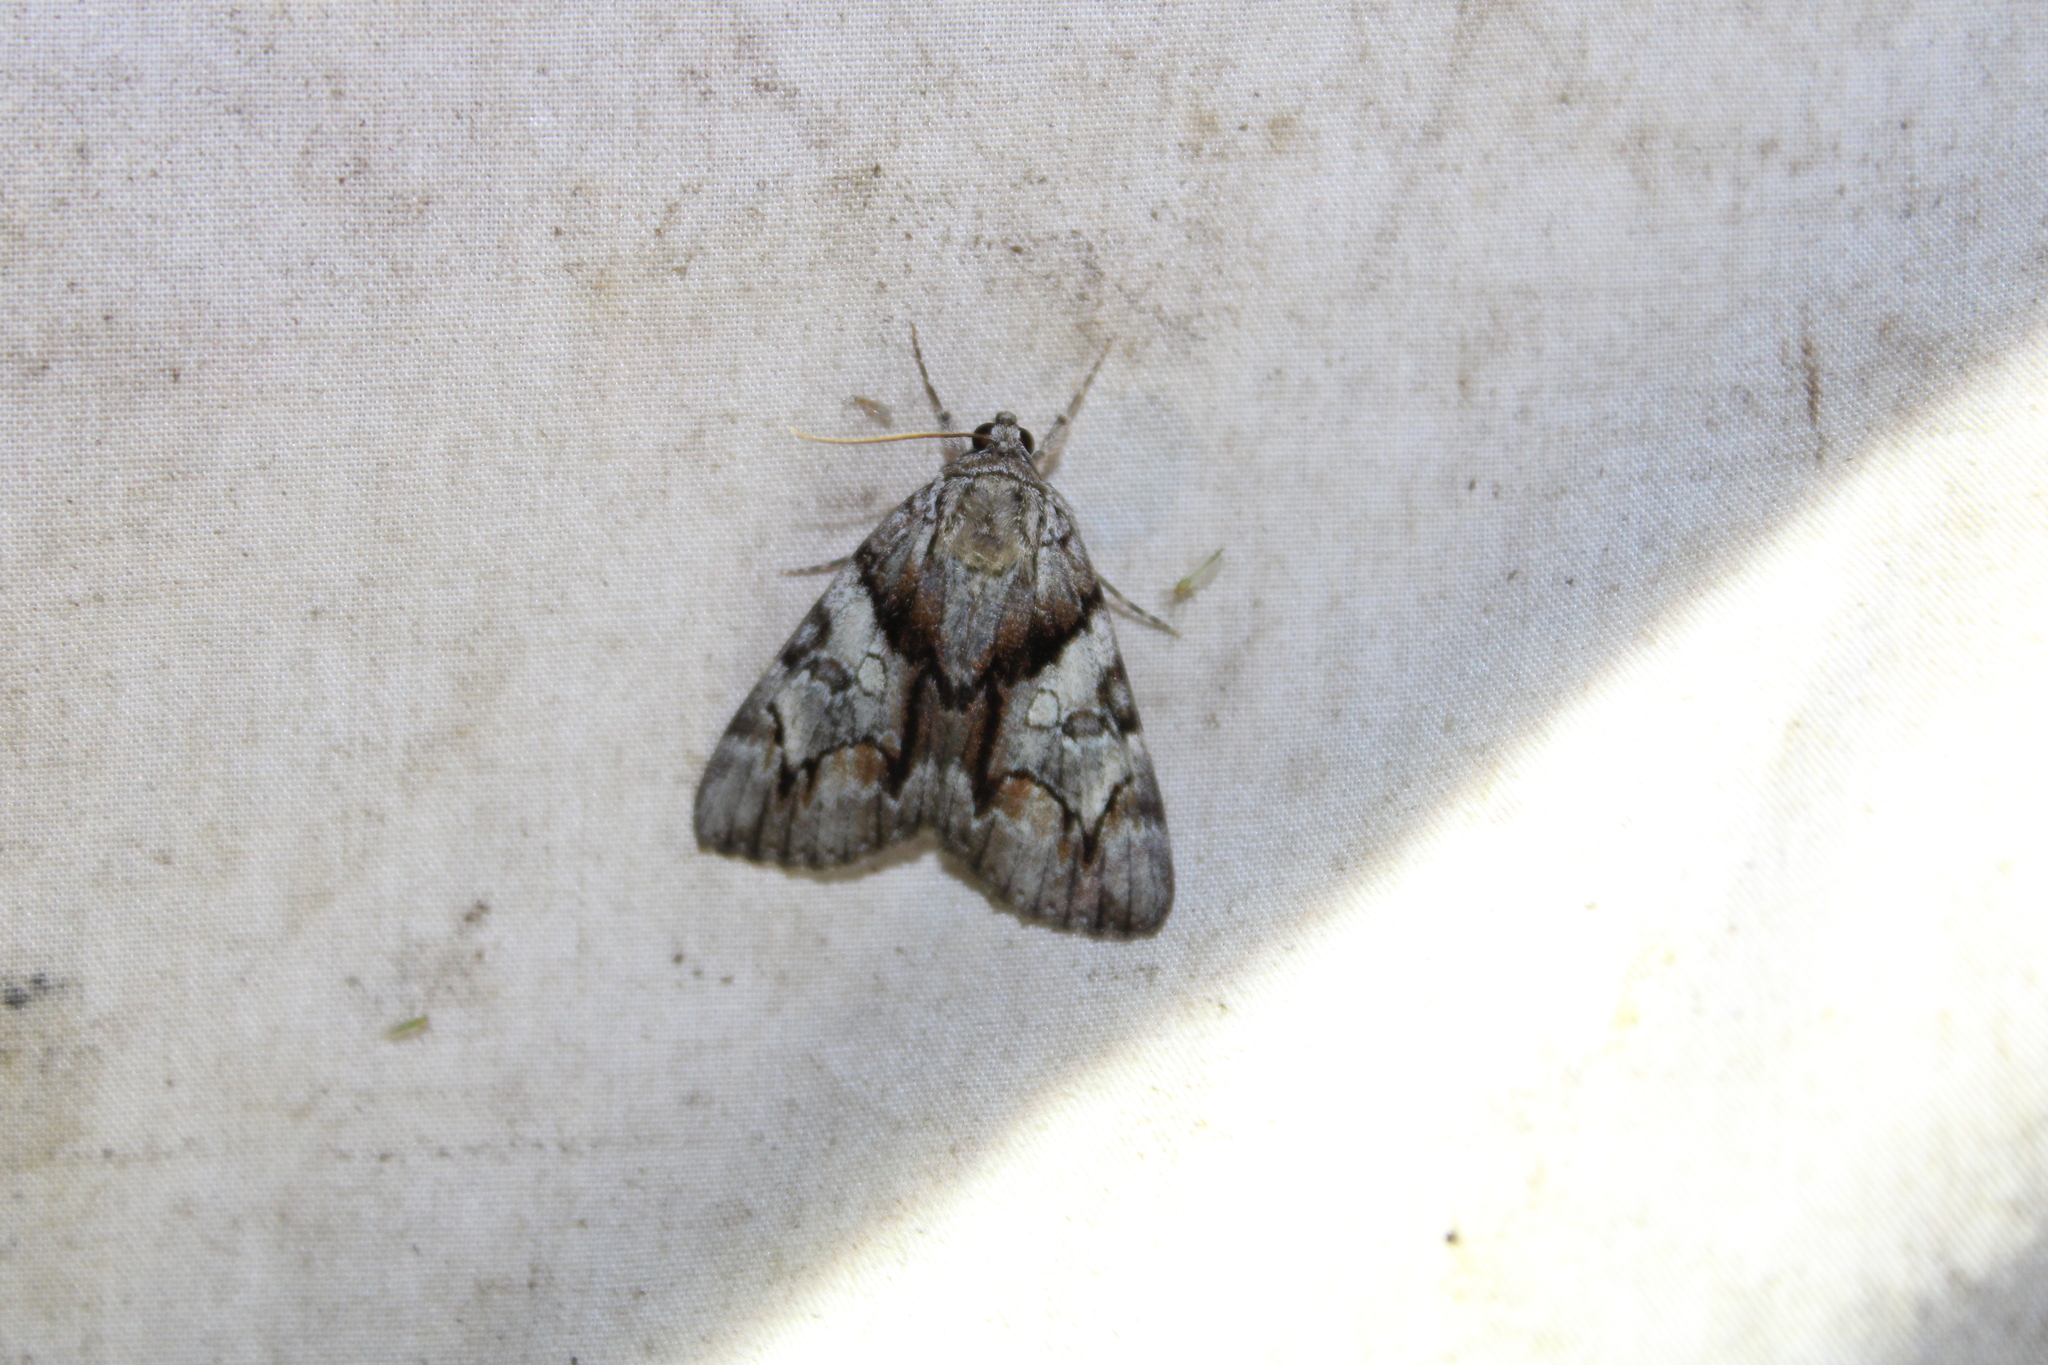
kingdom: Animalia
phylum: Arthropoda
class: Insecta
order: Lepidoptera
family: Erebidae
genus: Catocala
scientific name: Catocala blandula
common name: Charming underwing
